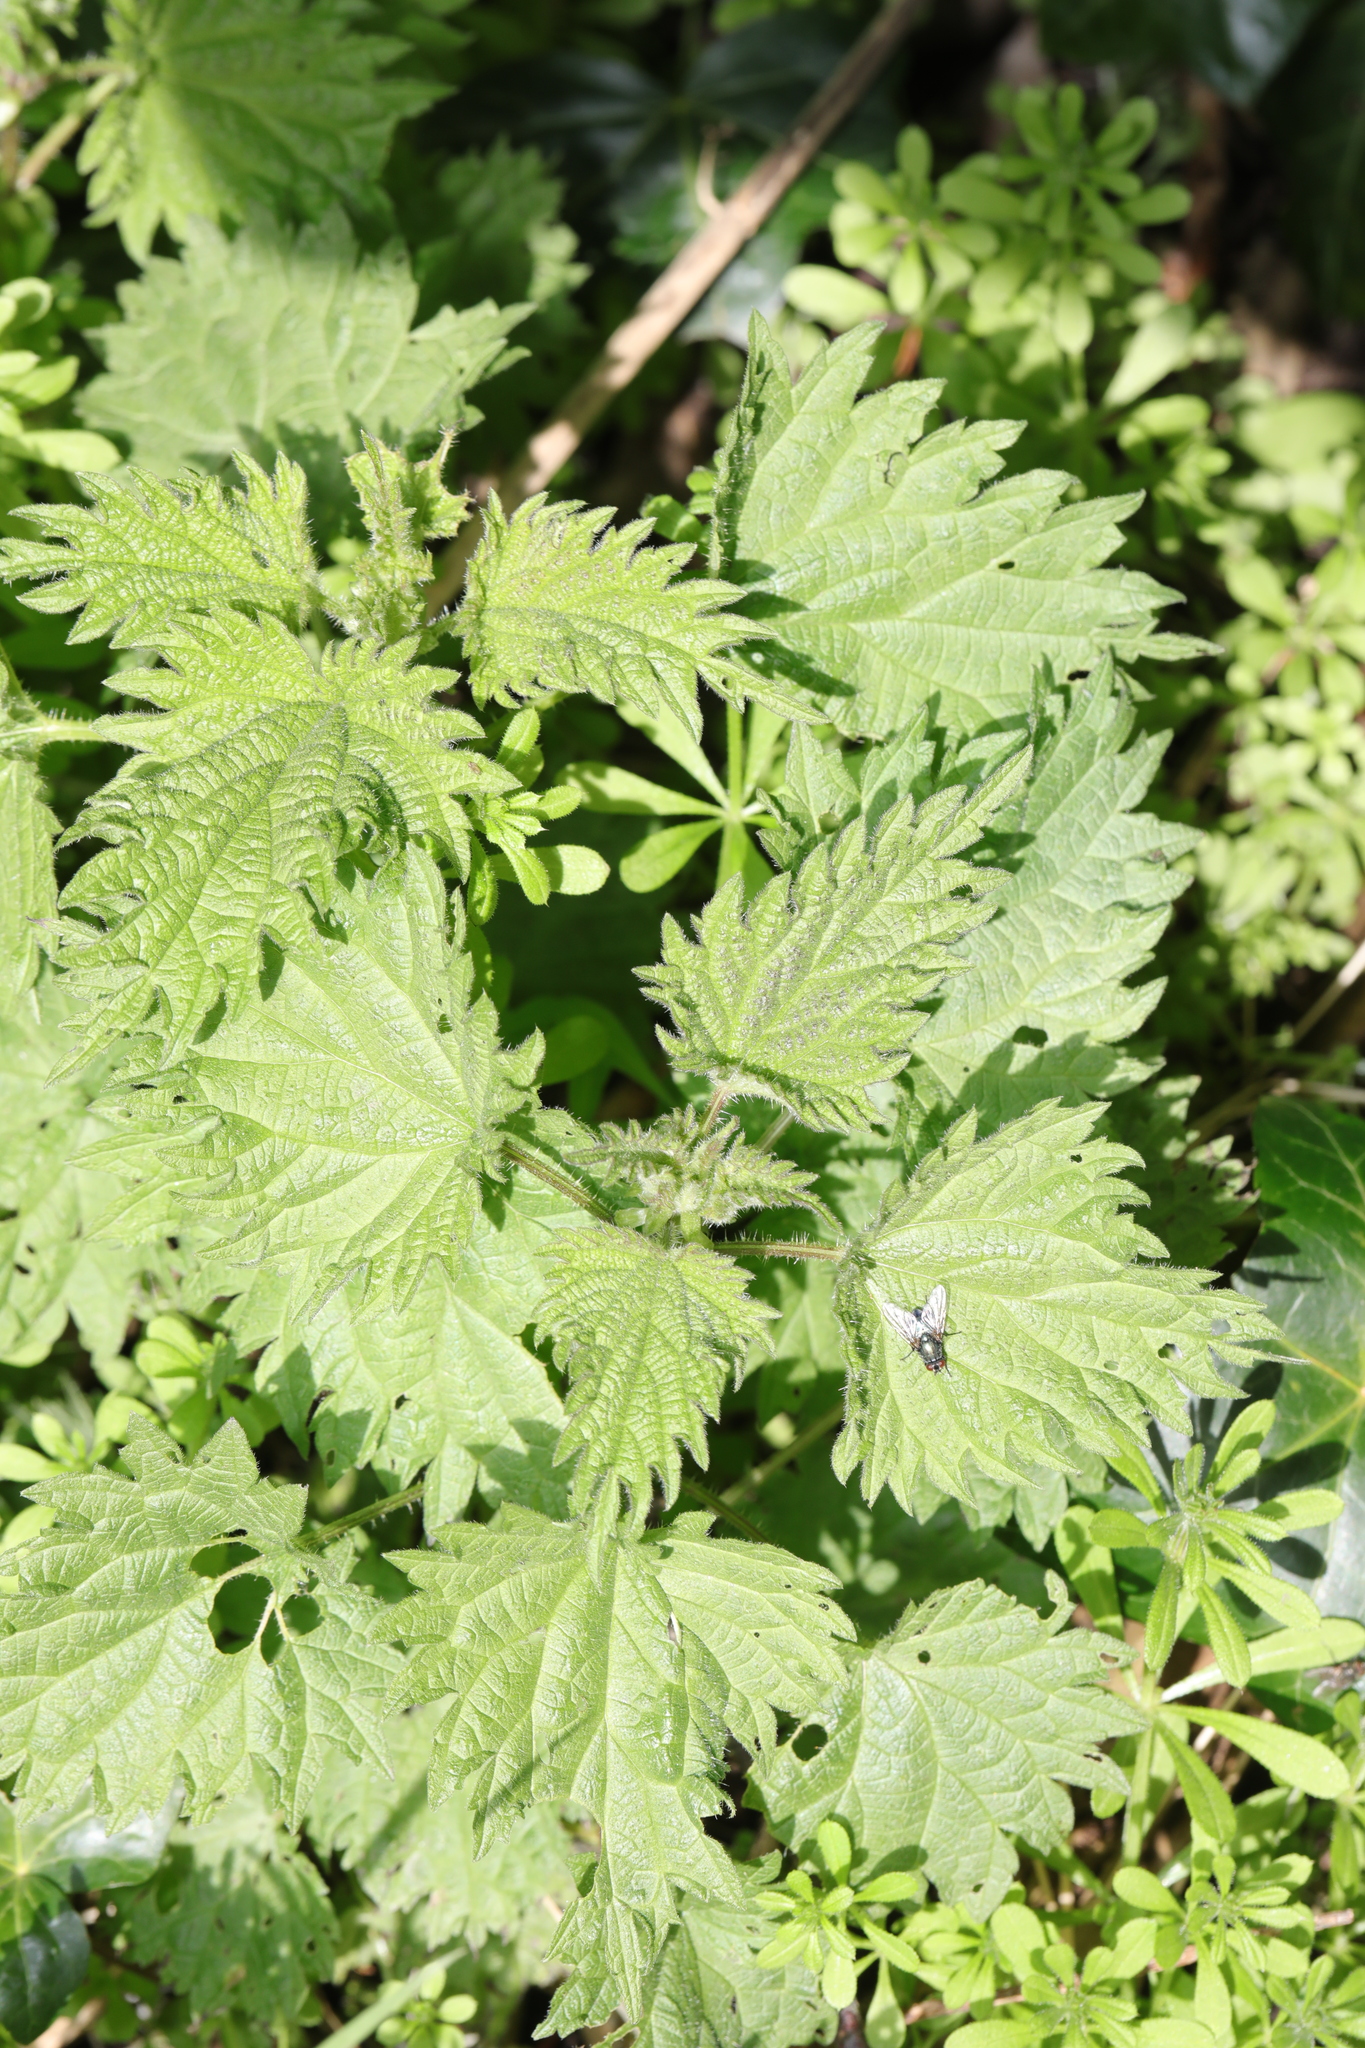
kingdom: Plantae
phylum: Tracheophyta
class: Magnoliopsida
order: Rosales
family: Urticaceae
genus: Urtica
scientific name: Urtica dioica
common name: Common nettle
